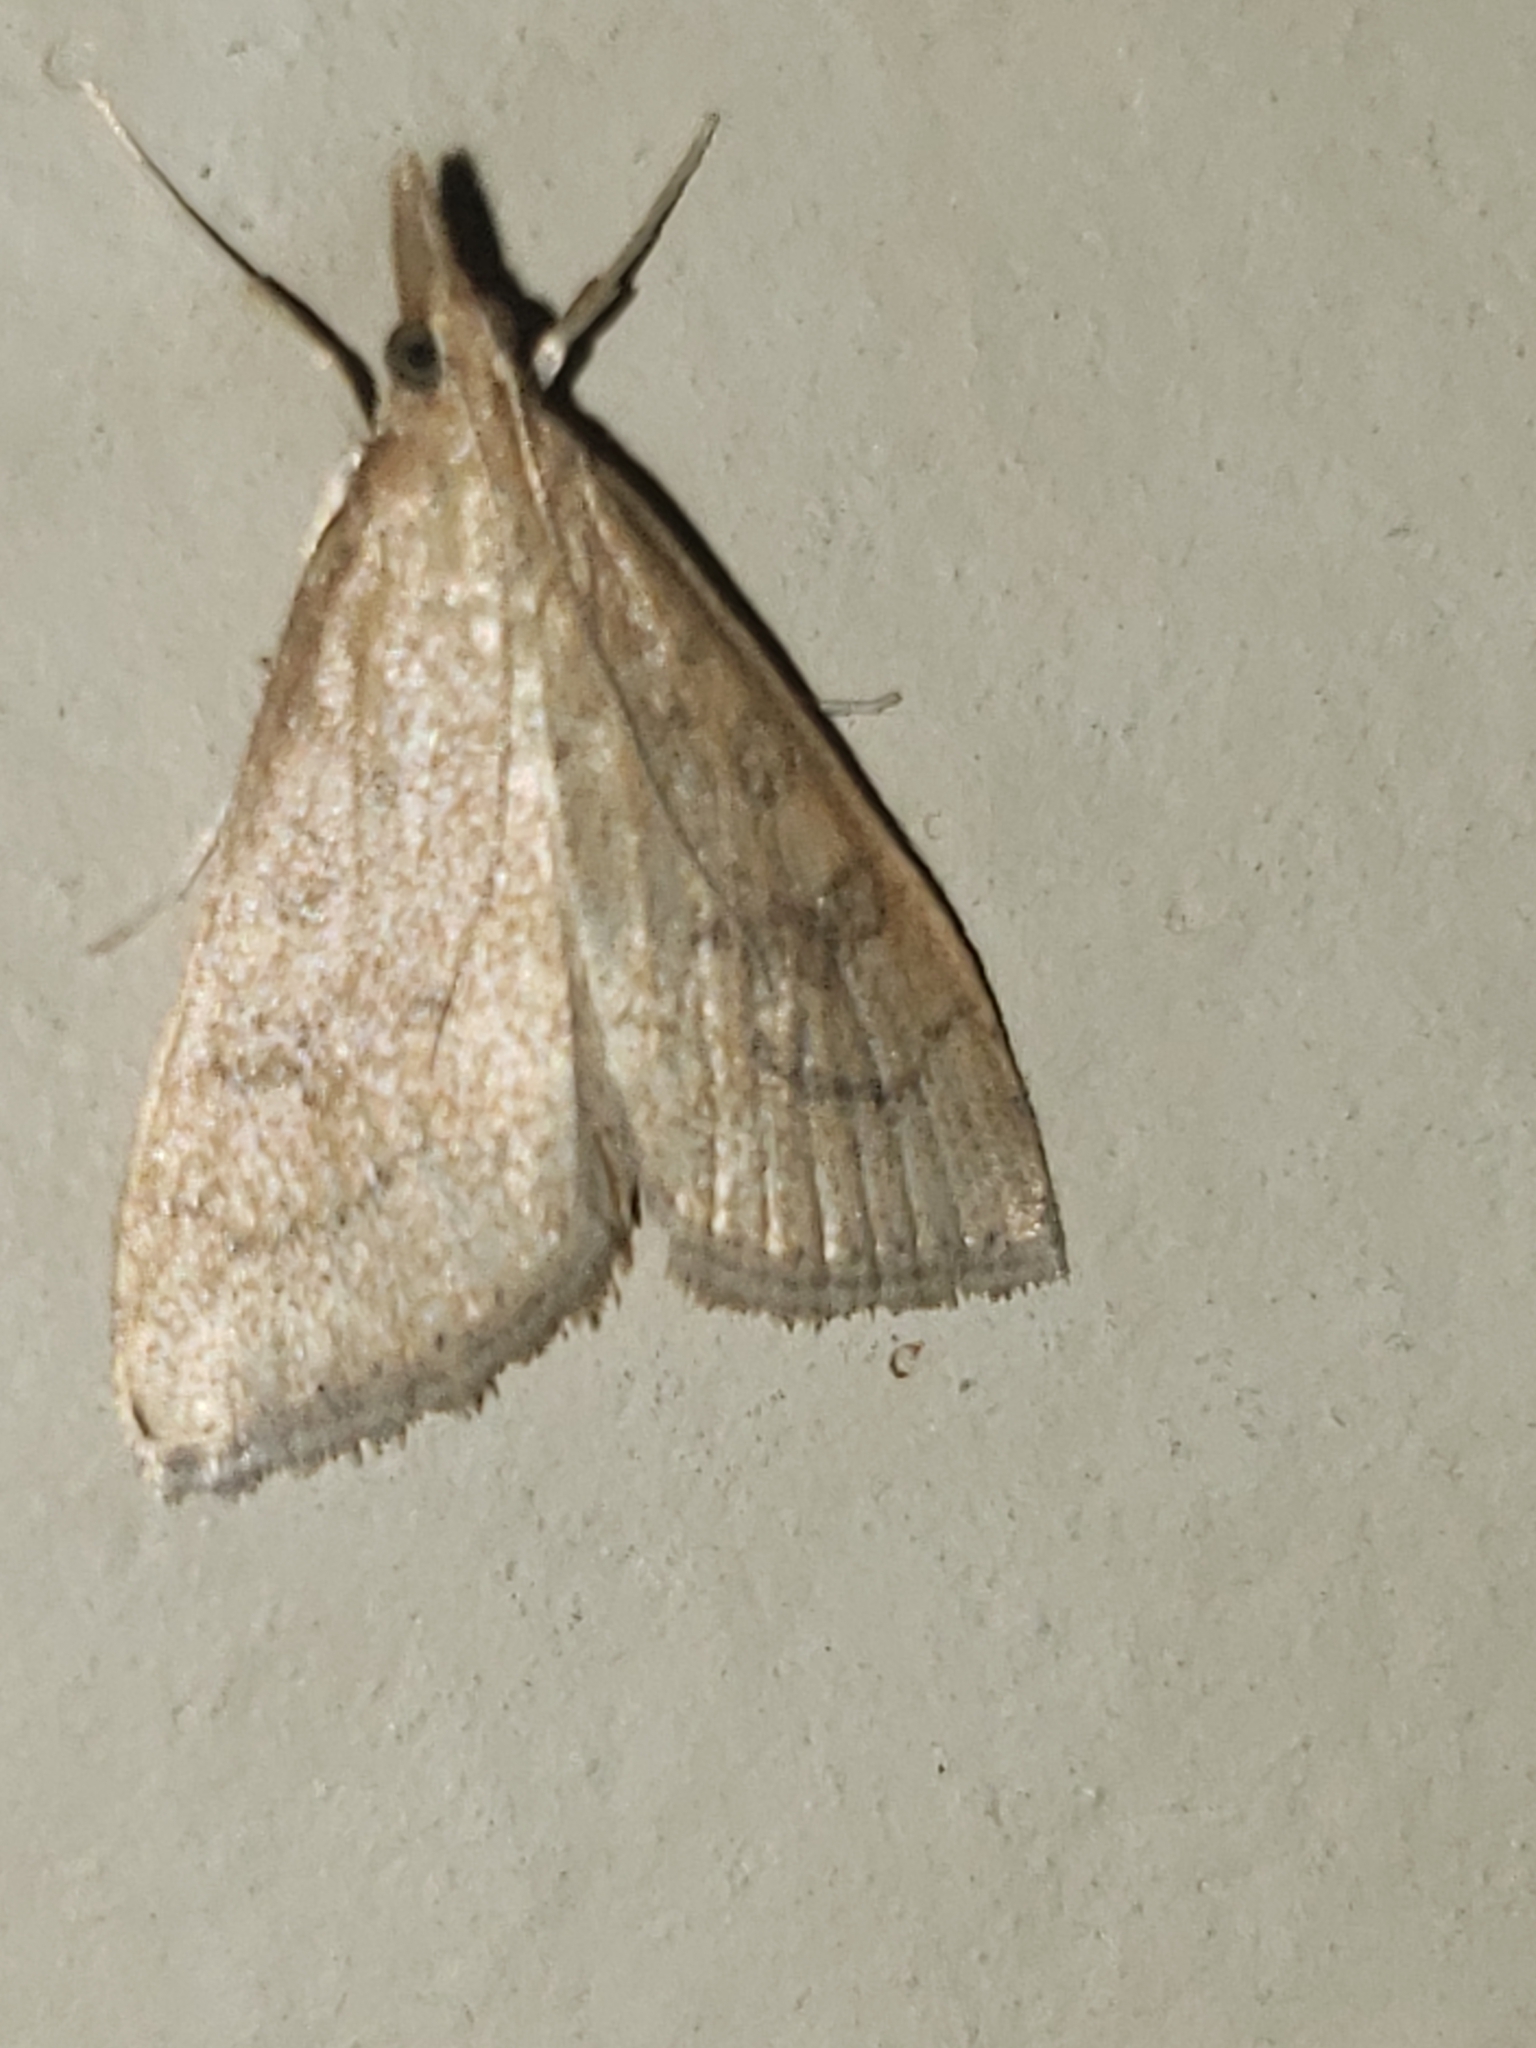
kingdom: Animalia
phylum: Arthropoda
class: Insecta
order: Lepidoptera
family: Crambidae
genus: Udea
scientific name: Udea rubigalis
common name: Celery leaftier moth
